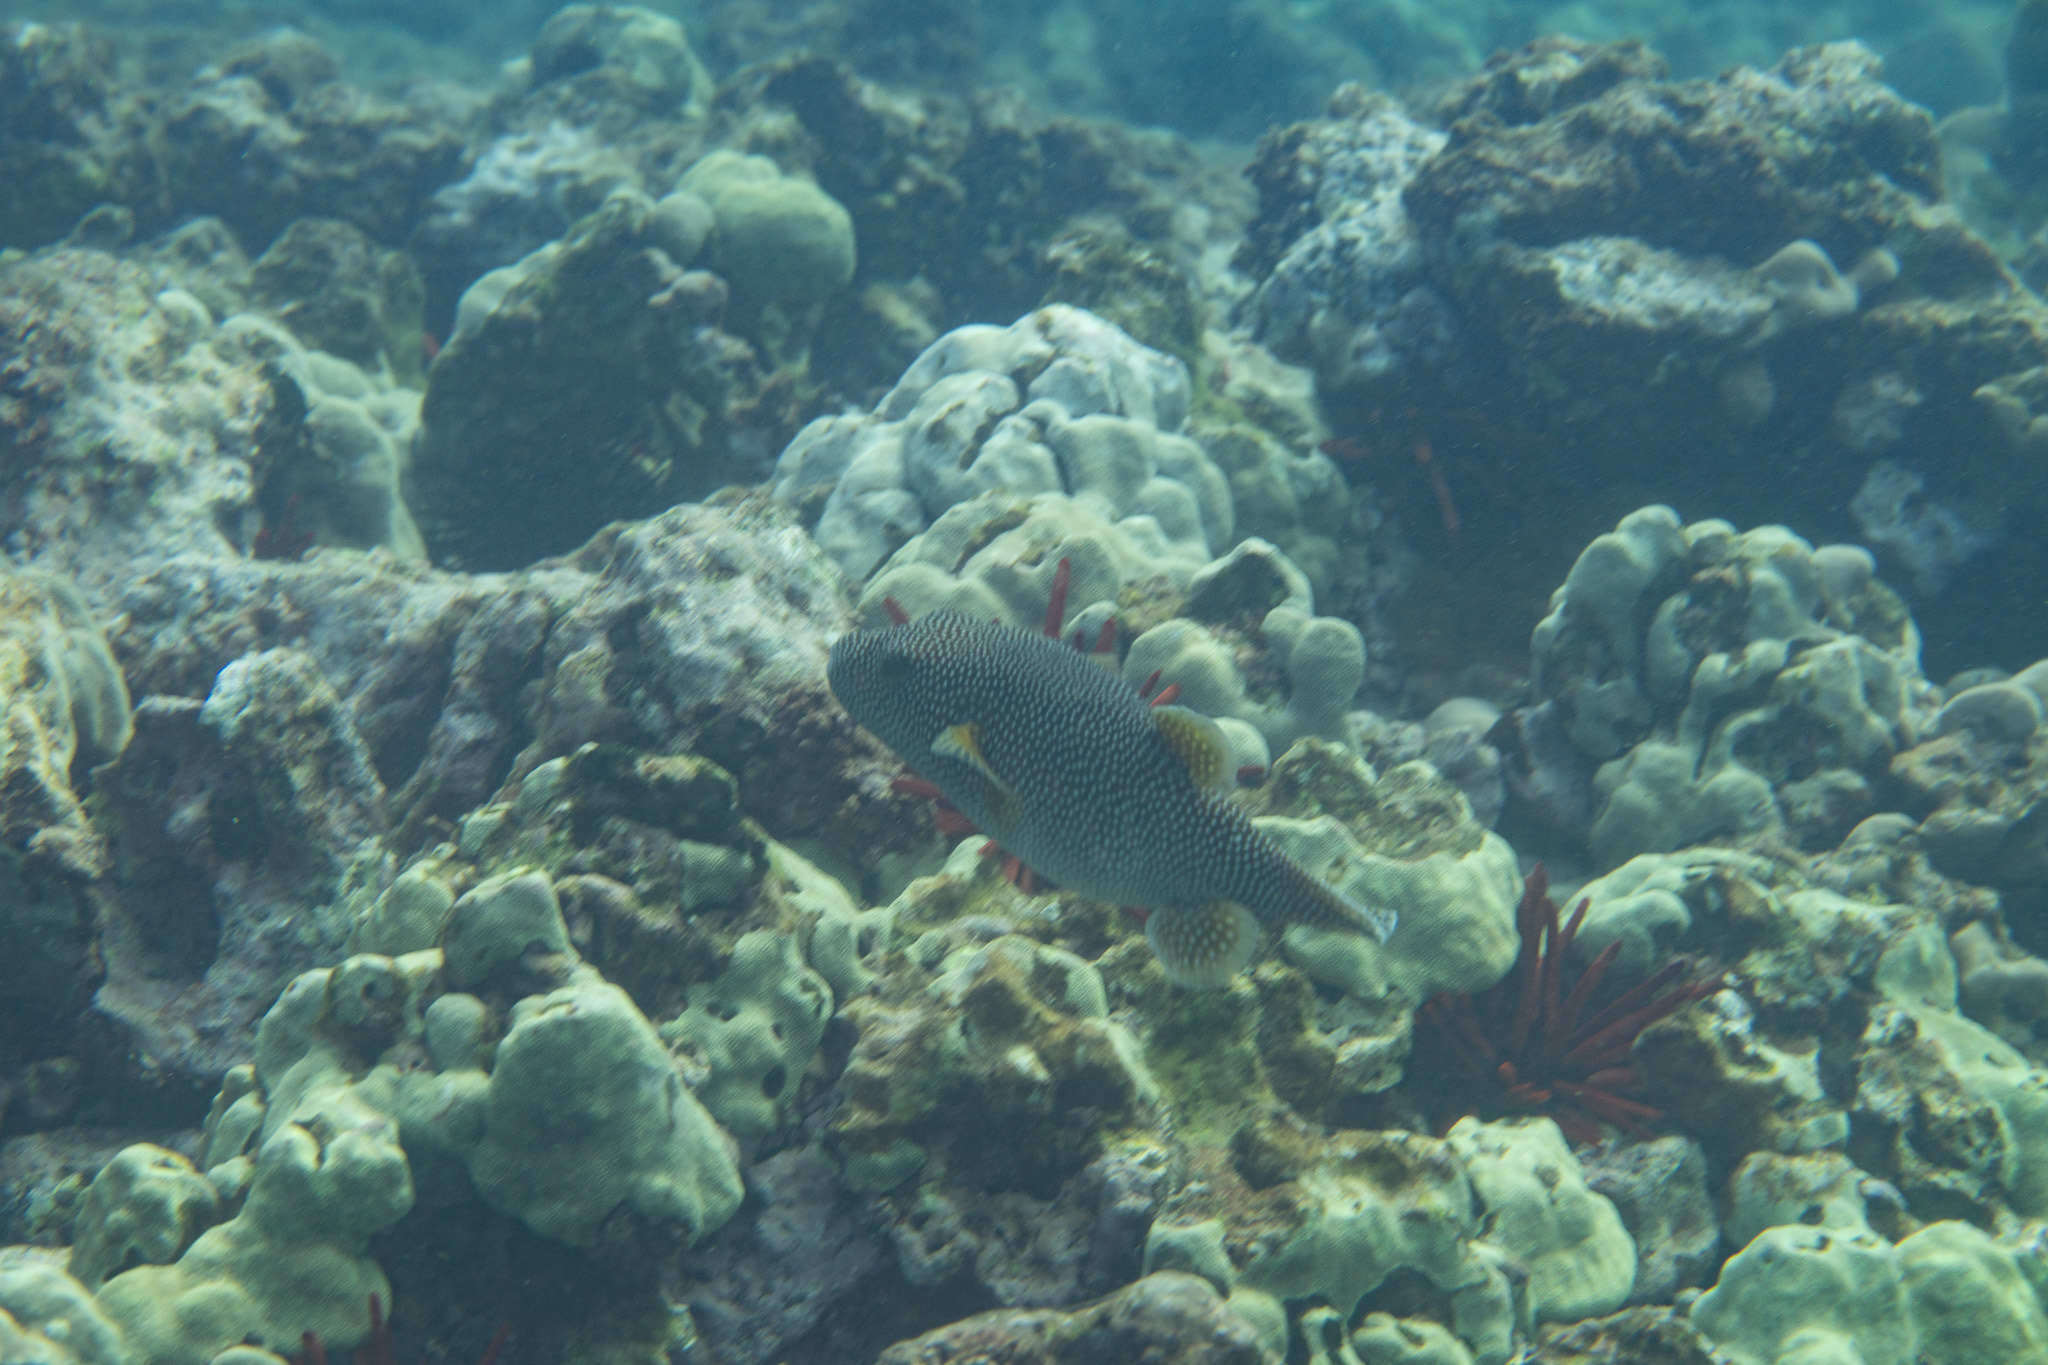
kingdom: Animalia
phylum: Chordata
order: Tetraodontiformes
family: Tetraodontidae
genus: Arothron
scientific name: Arothron meleagris
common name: Guinea-fowl pufferfish
